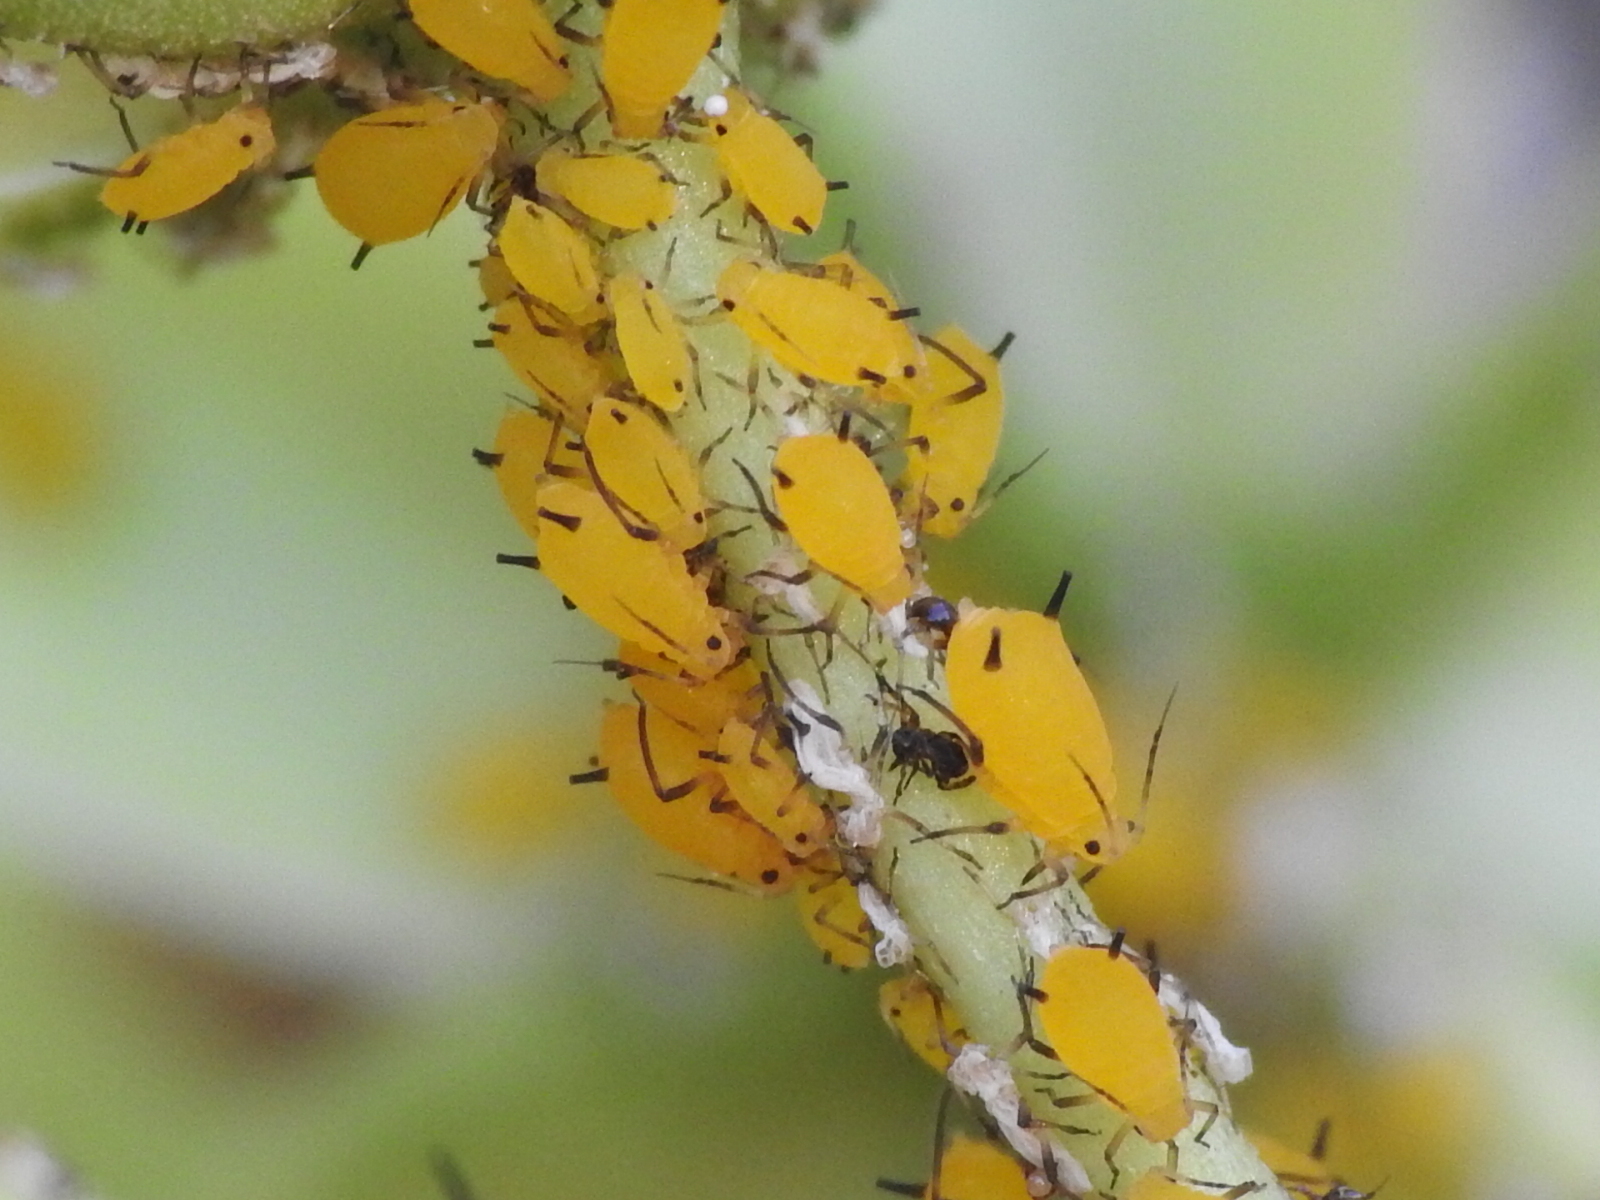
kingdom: Animalia
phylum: Arthropoda
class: Insecta
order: Hemiptera
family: Aphididae
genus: Aphis
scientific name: Aphis nerii
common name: Oleander aphid
